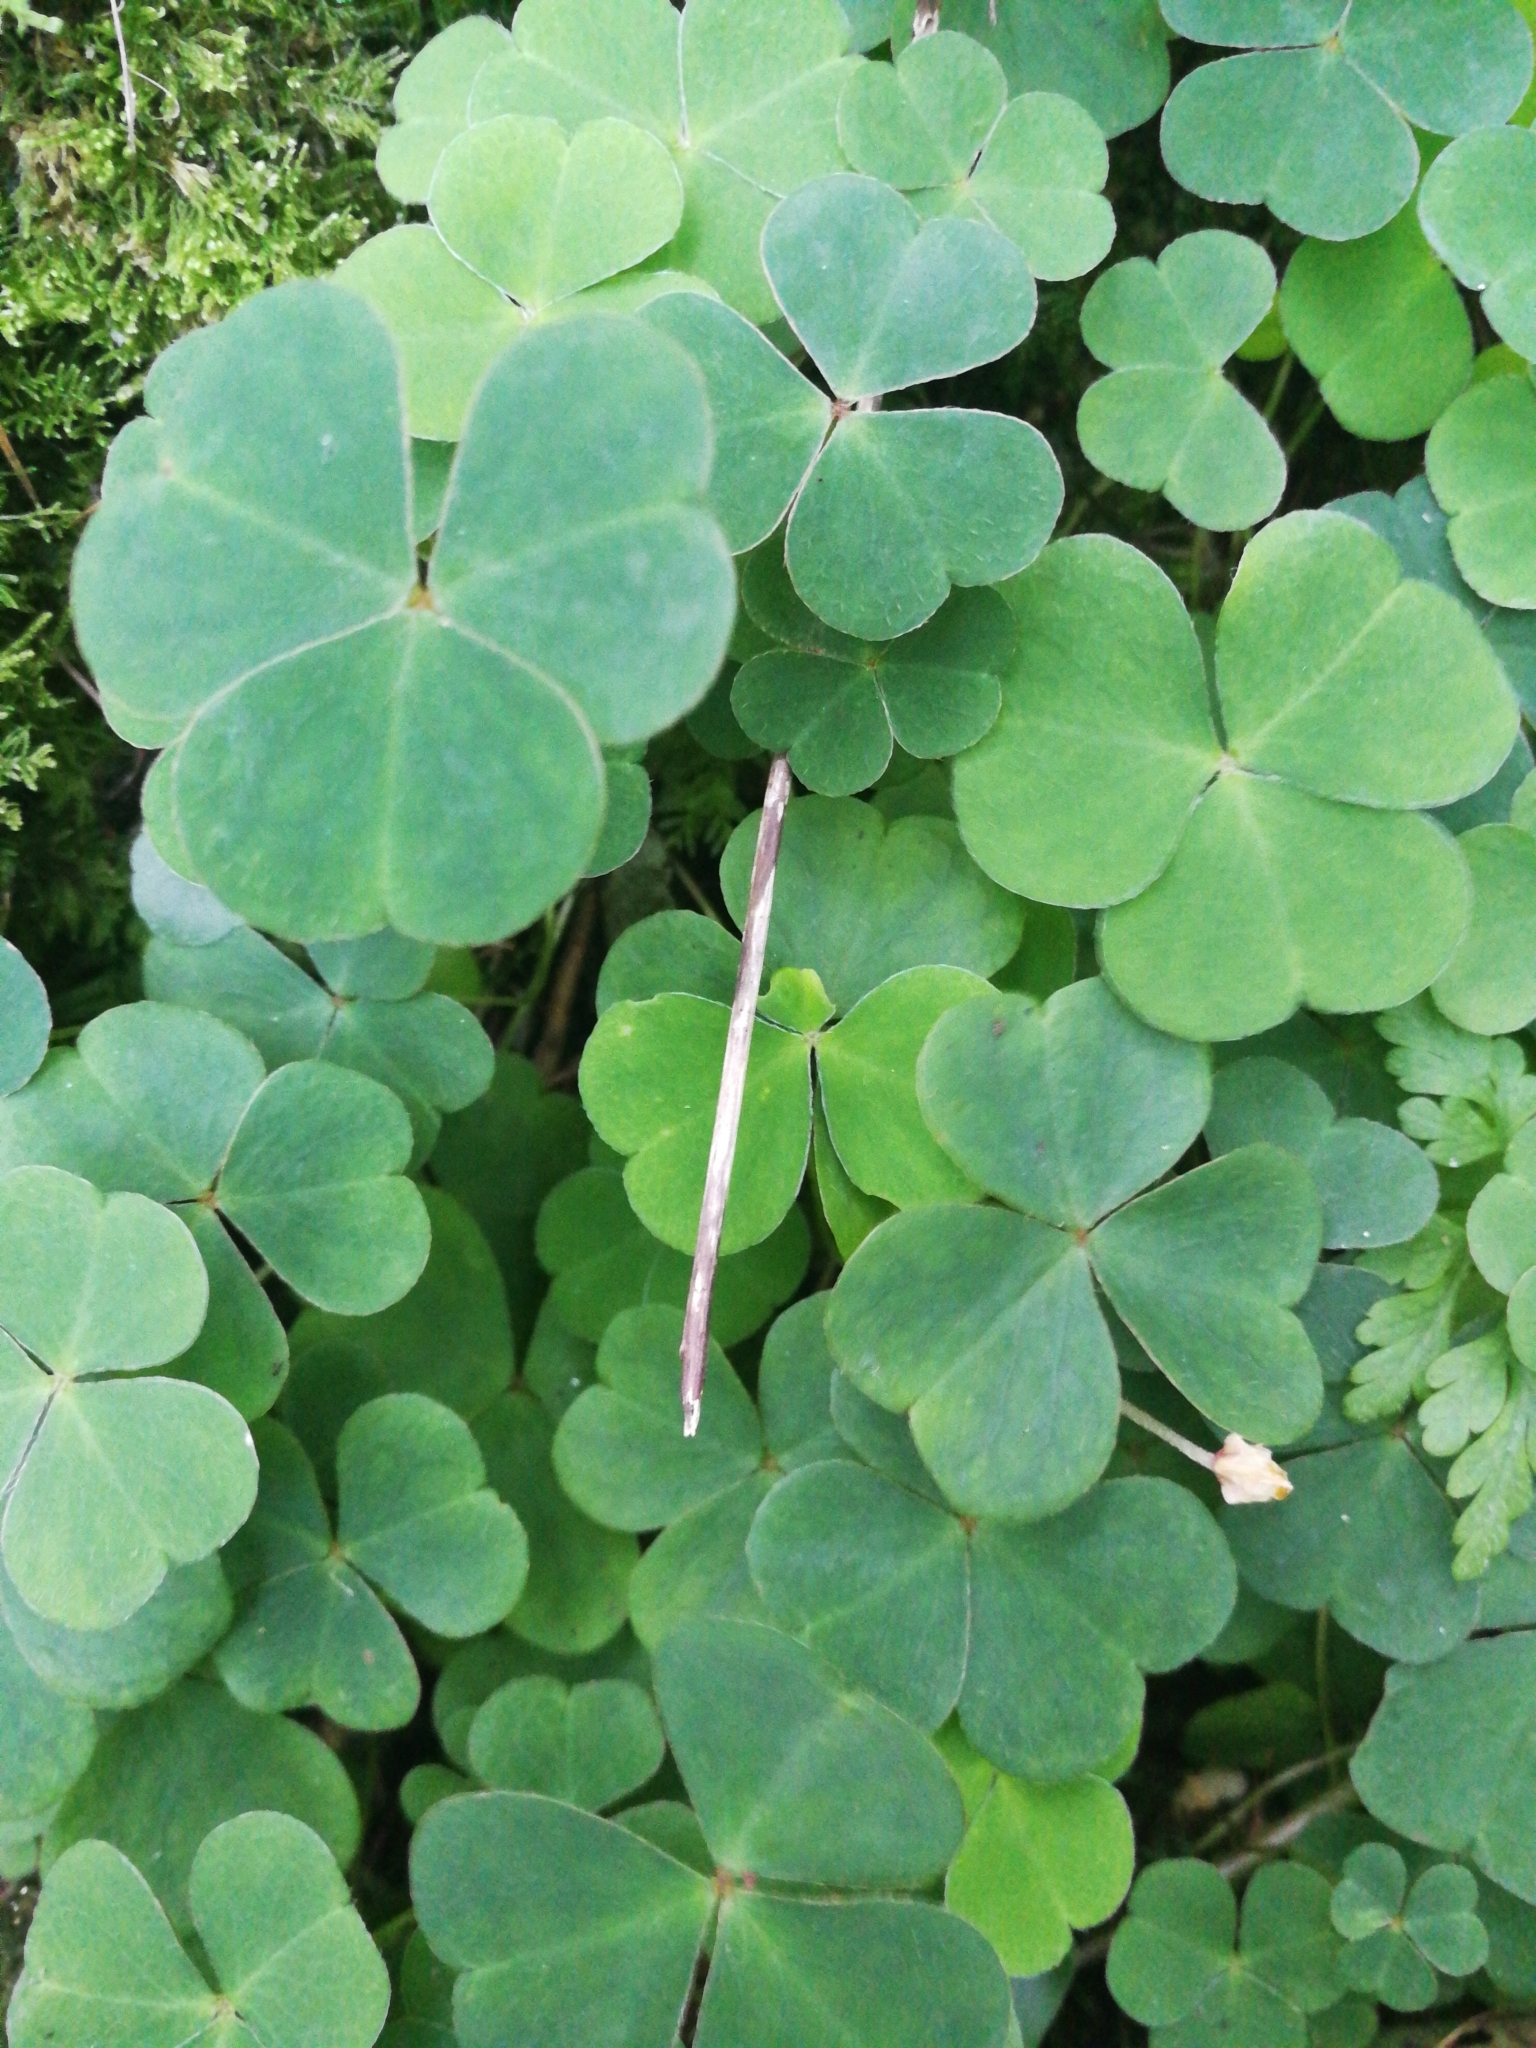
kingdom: Plantae
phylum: Tracheophyta
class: Magnoliopsida
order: Oxalidales
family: Oxalidaceae
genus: Oxalis
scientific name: Oxalis acetosella
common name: Wood-sorrel
